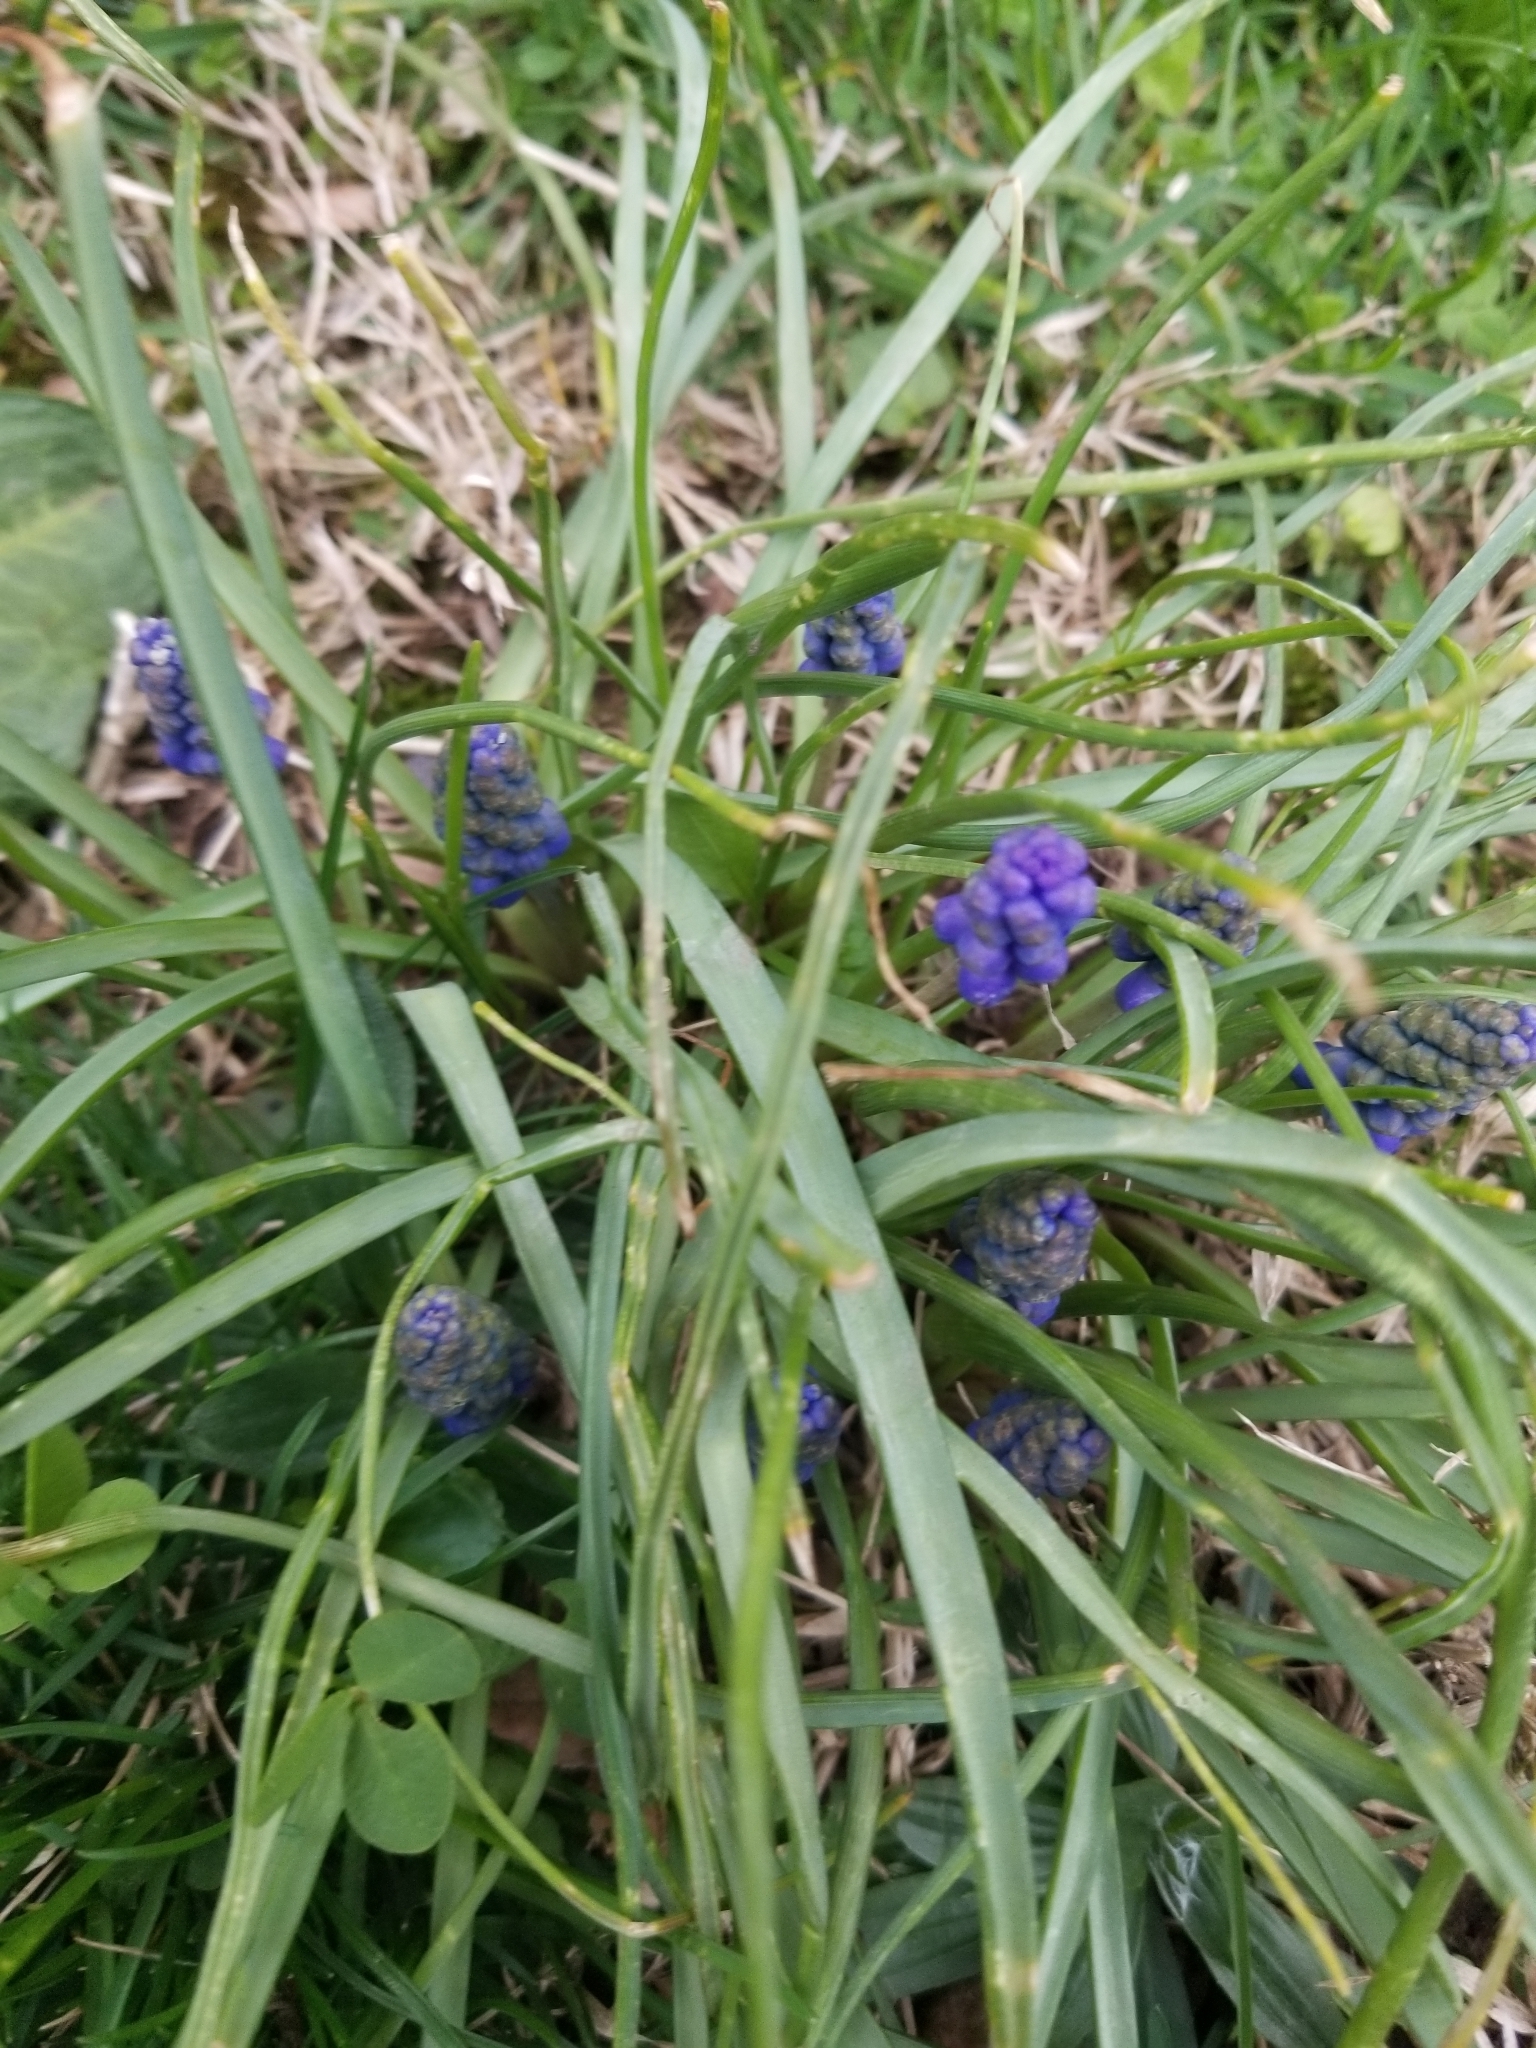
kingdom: Plantae
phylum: Tracheophyta
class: Liliopsida
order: Asparagales
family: Asparagaceae
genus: Muscari
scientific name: Muscari botryoides
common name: Compact grape-hyacinth
